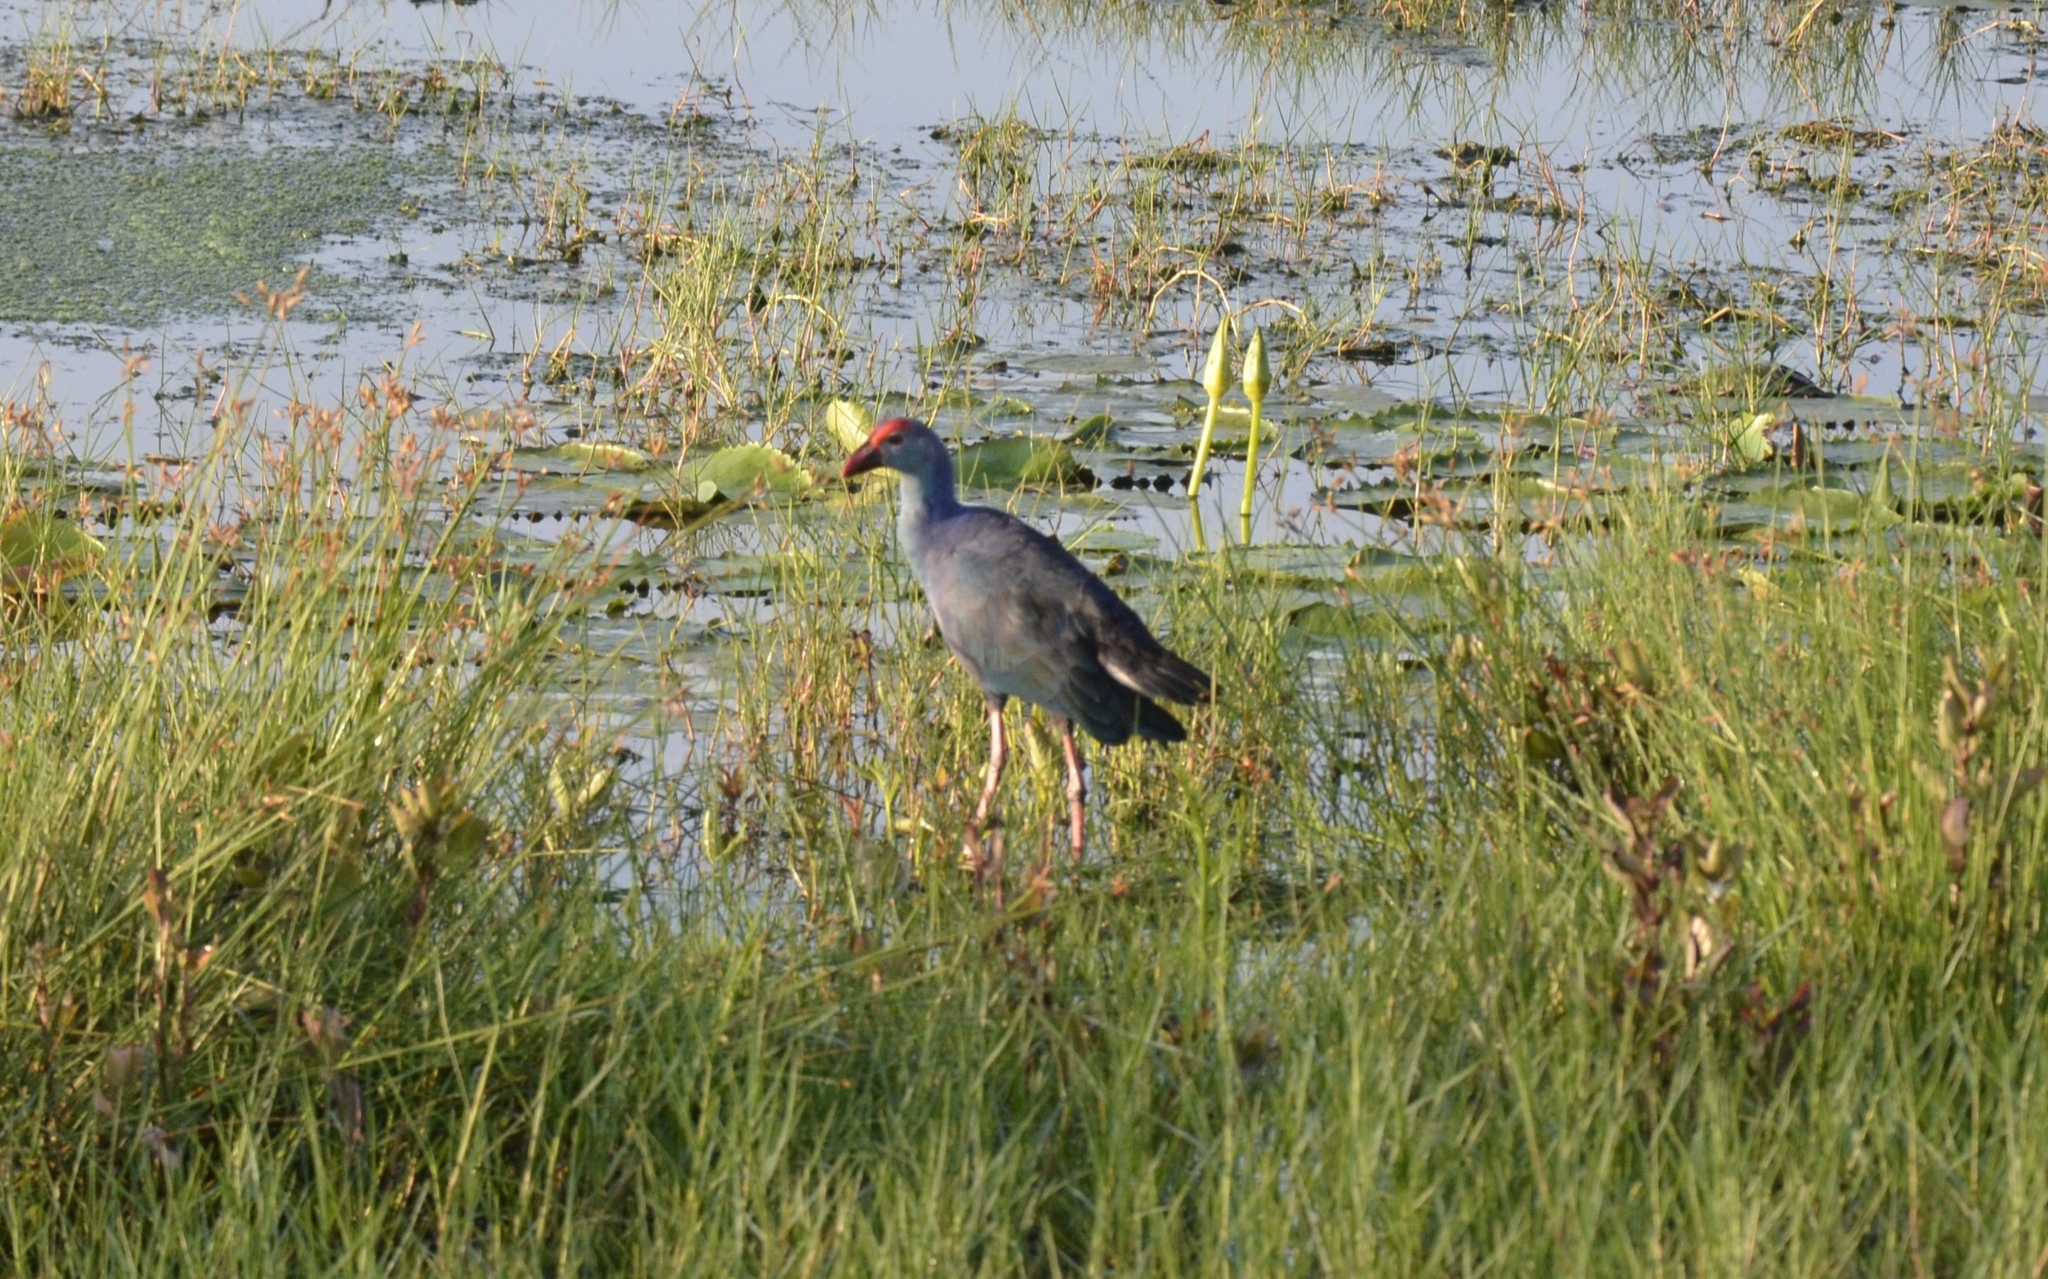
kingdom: Animalia
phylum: Chordata
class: Aves
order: Gruiformes
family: Rallidae
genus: Porphyrio
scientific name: Porphyrio porphyrio
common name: Purple swamphen
